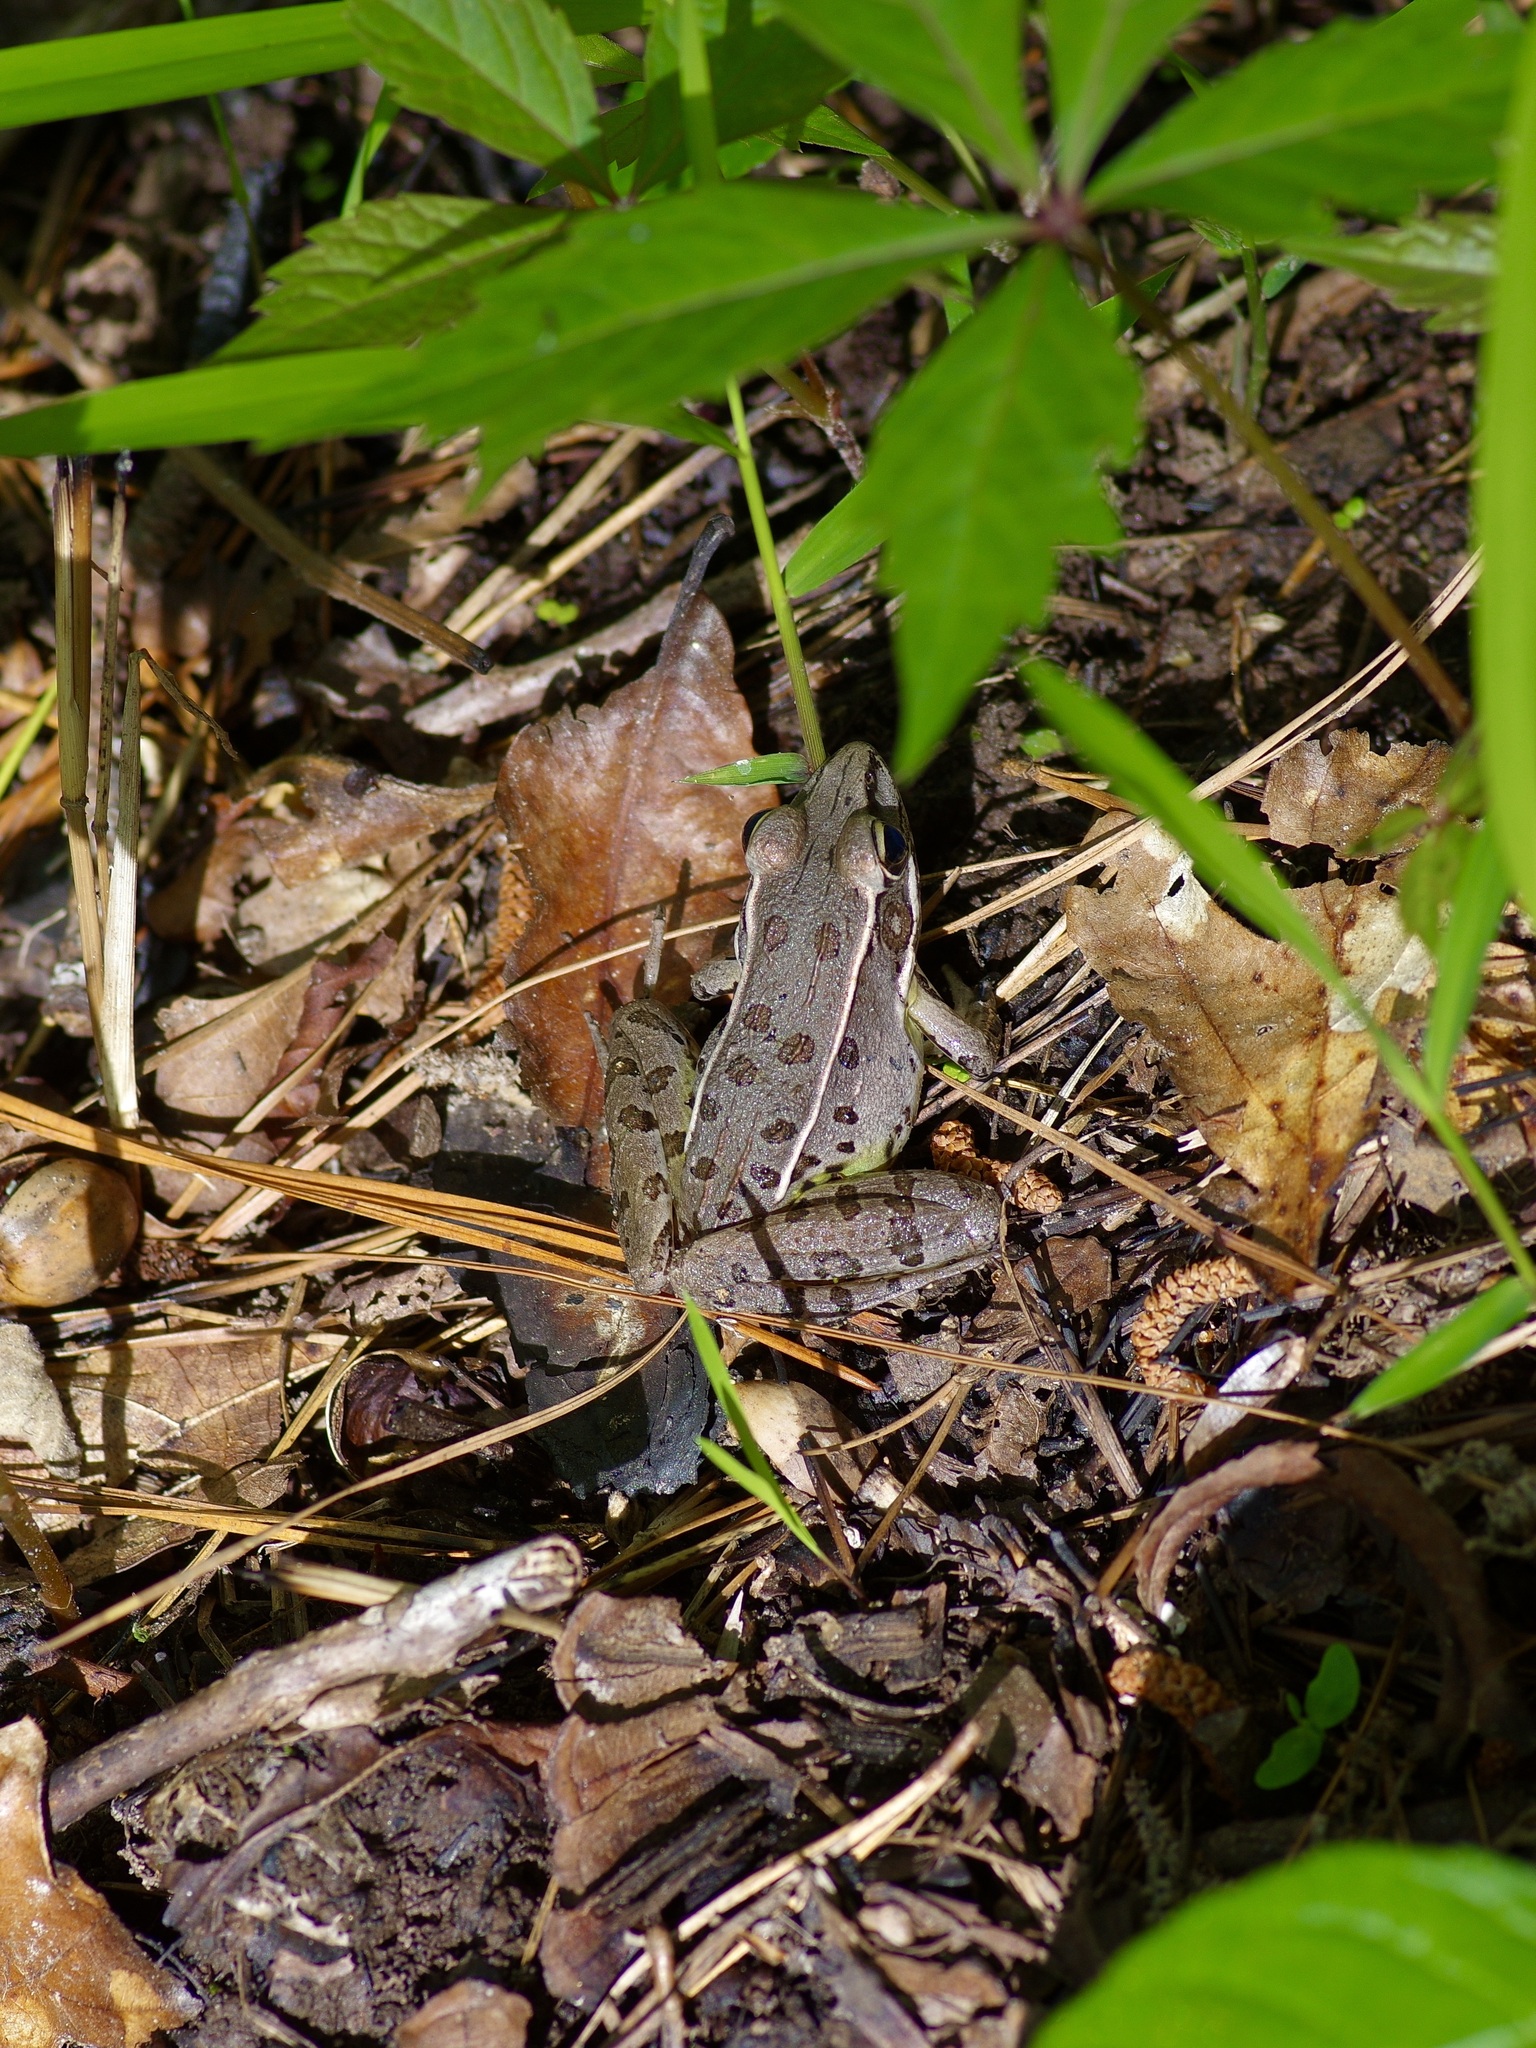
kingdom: Animalia
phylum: Chordata
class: Amphibia
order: Anura
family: Ranidae
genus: Lithobates
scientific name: Lithobates sphenocephalus
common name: Southern leopard frog
